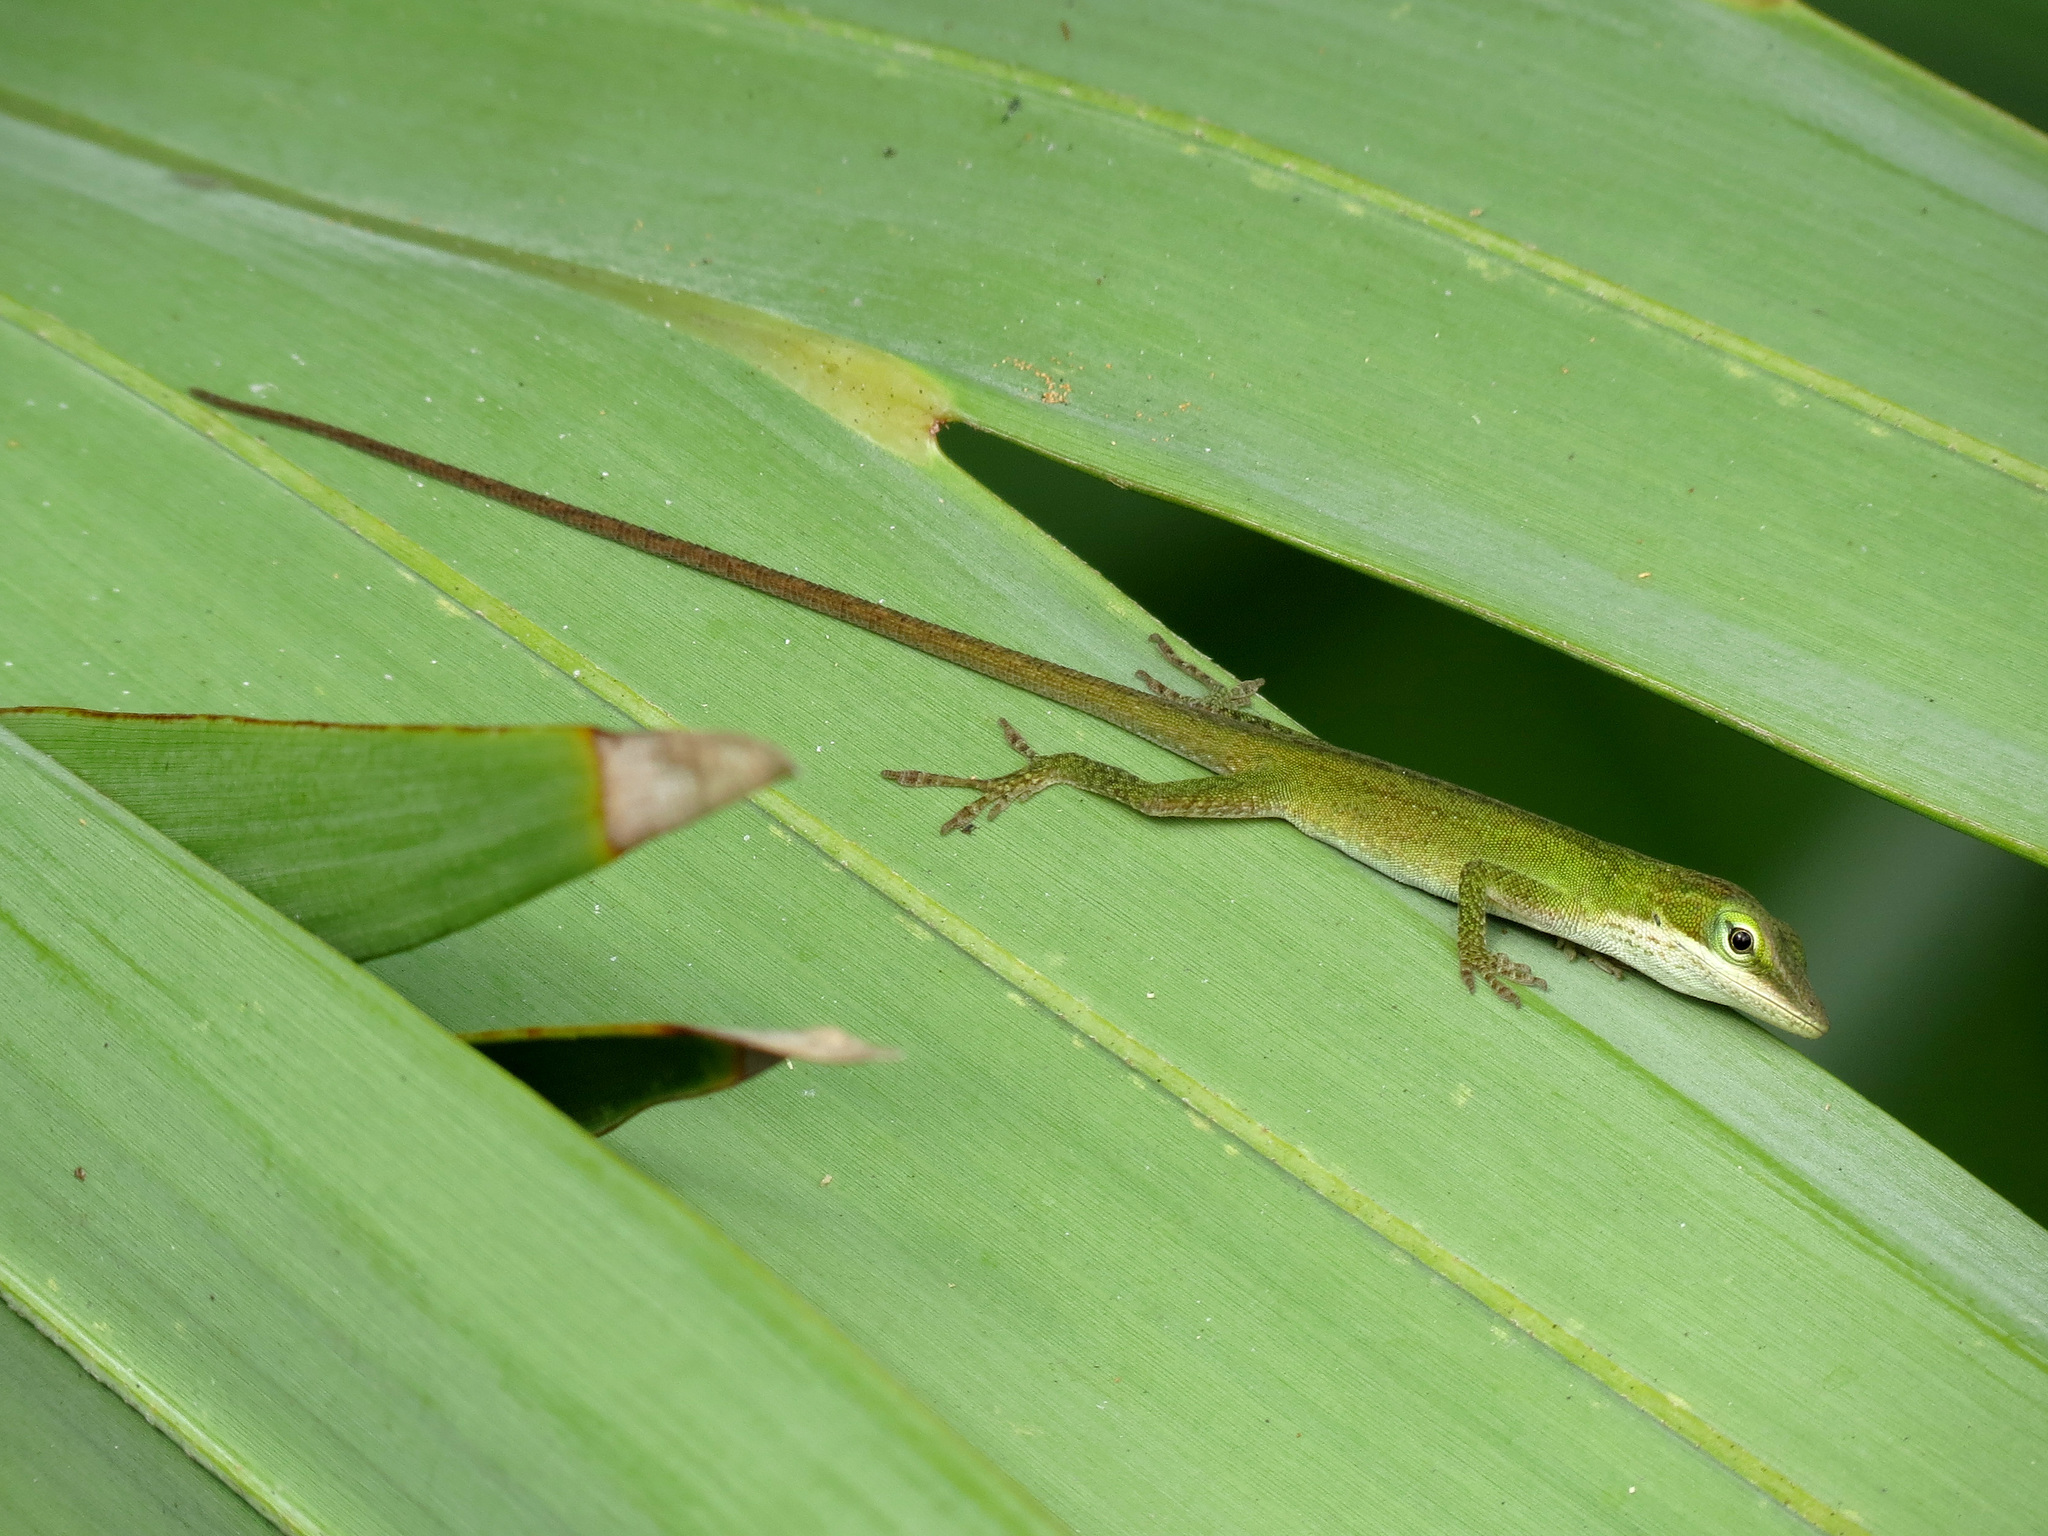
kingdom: Animalia
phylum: Chordata
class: Squamata
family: Dactyloidae
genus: Anolis
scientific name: Anolis carolinensis
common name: Green anole
